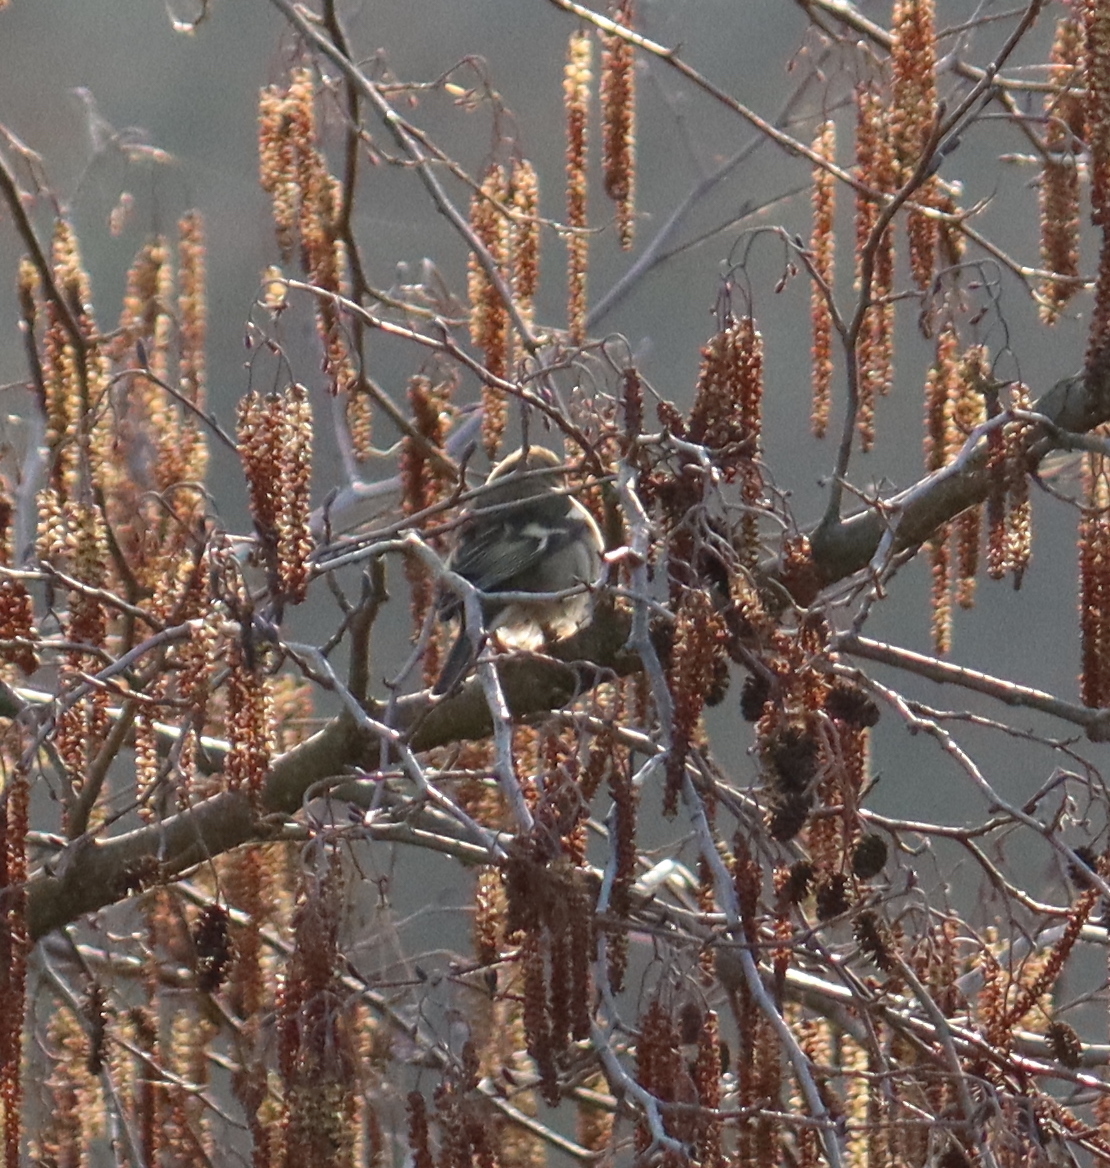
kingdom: Animalia
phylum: Chordata
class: Aves
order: Passeriformes
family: Fringillidae
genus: Fringilla
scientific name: Fringilla coelebs
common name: Common chaffinch
